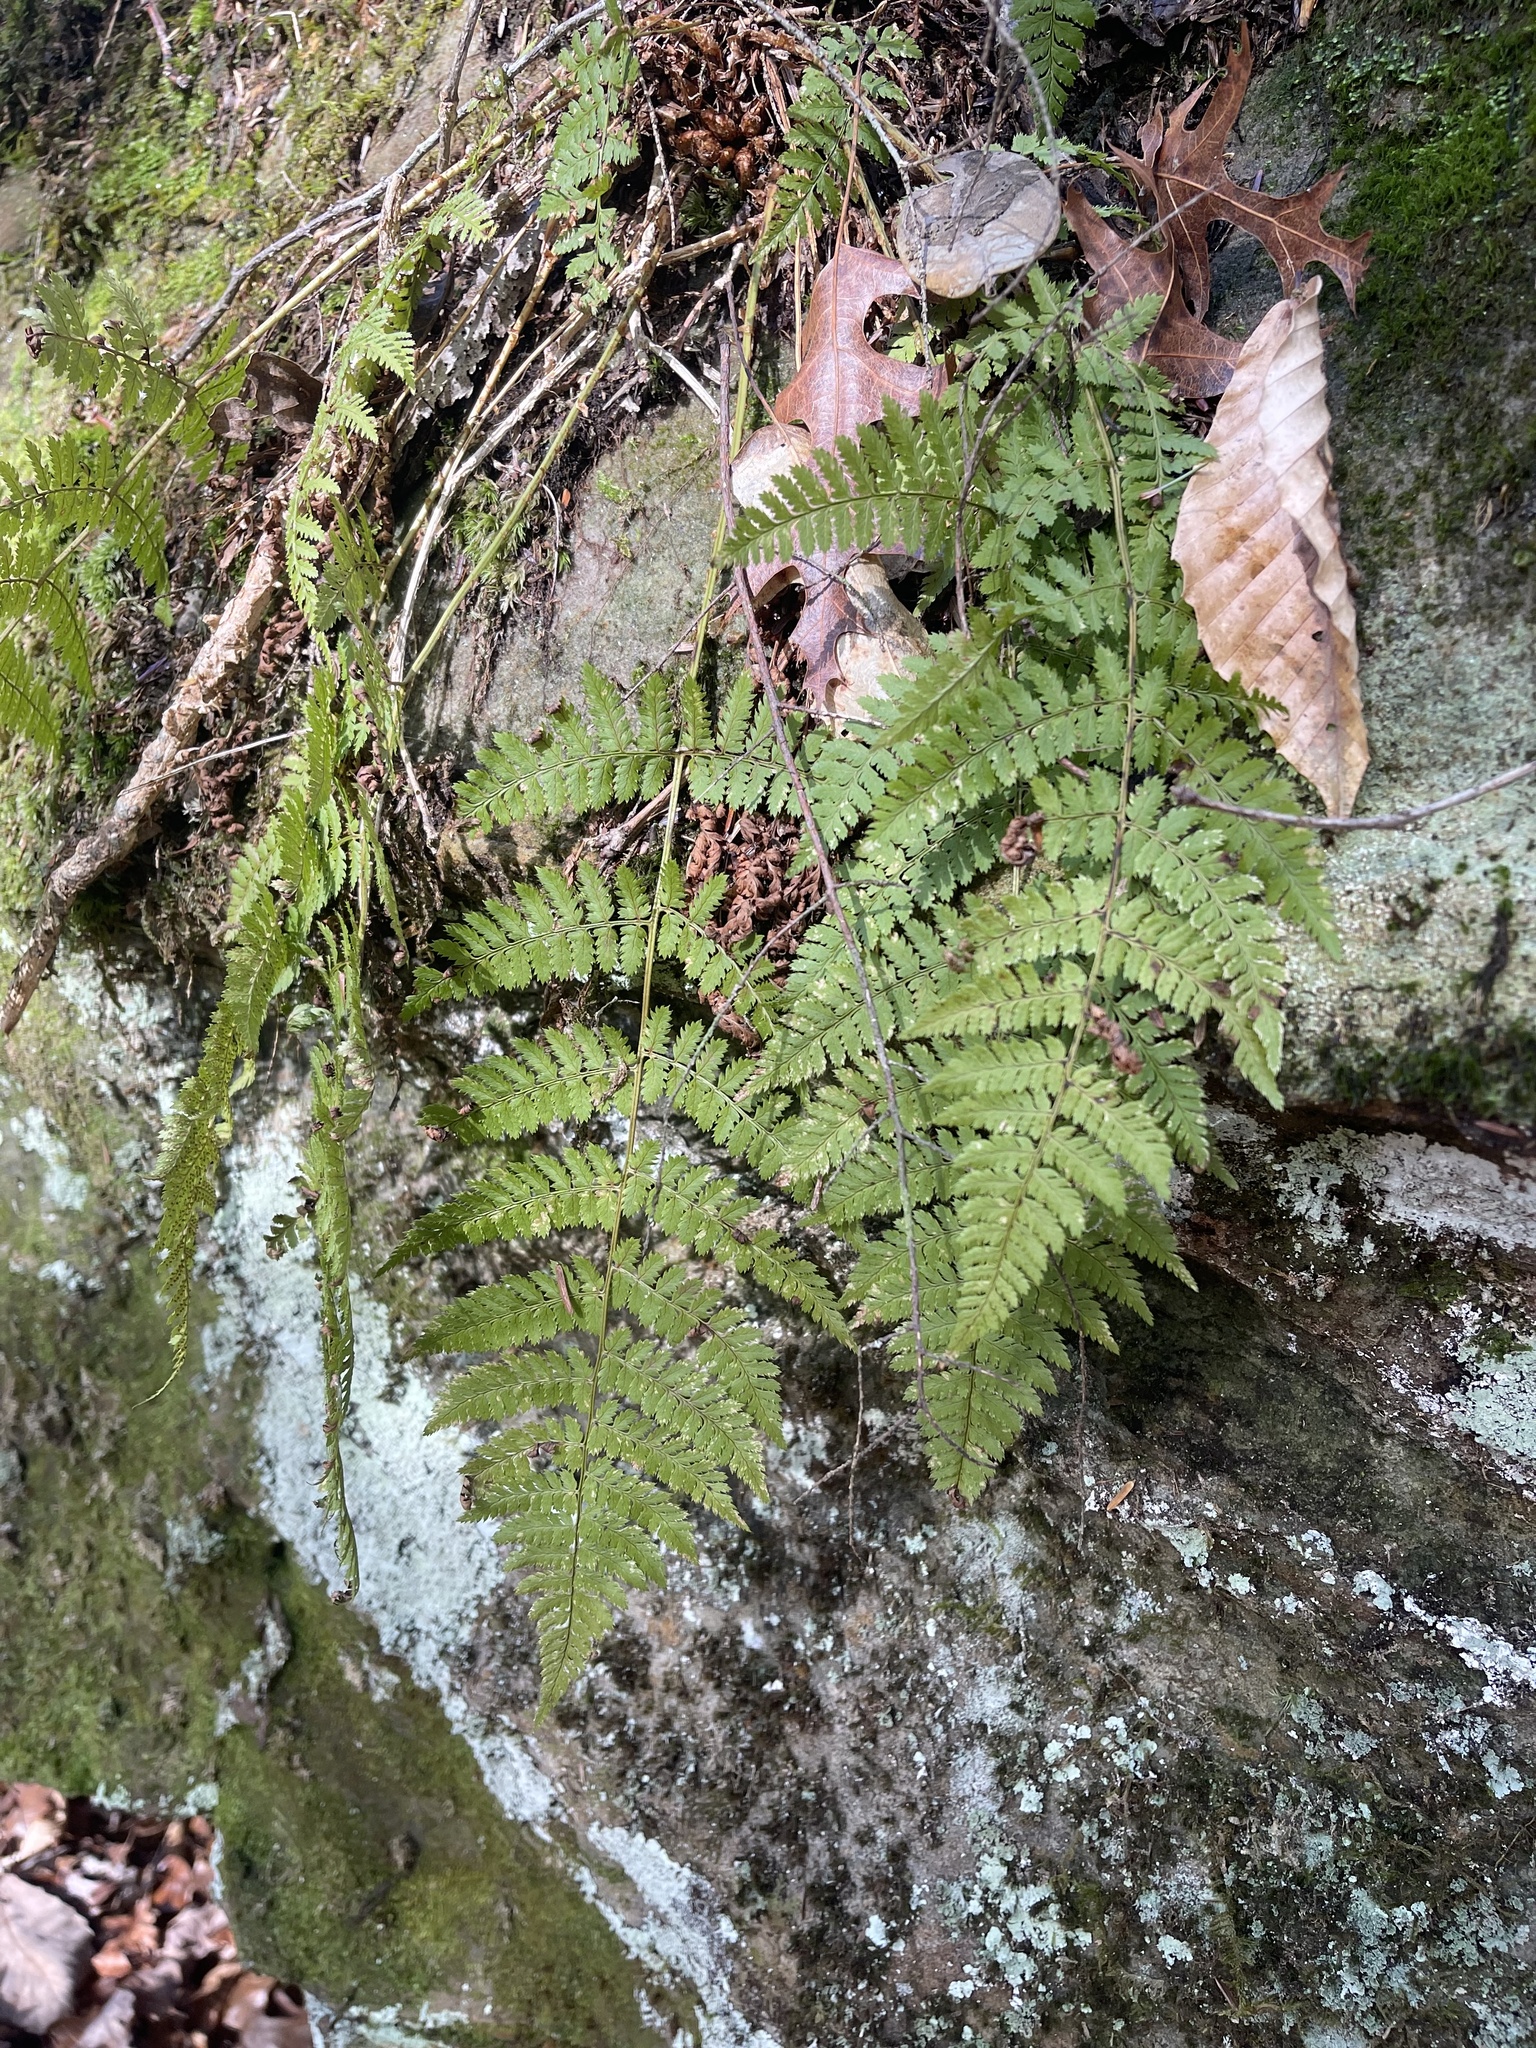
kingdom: Plantae
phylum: Tracheophyta
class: Polypodiopsida
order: Polypodiales
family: Dryopteridaceae
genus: Dryopteris
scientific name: Dryopteris intermedia
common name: Evergreen wood fern
